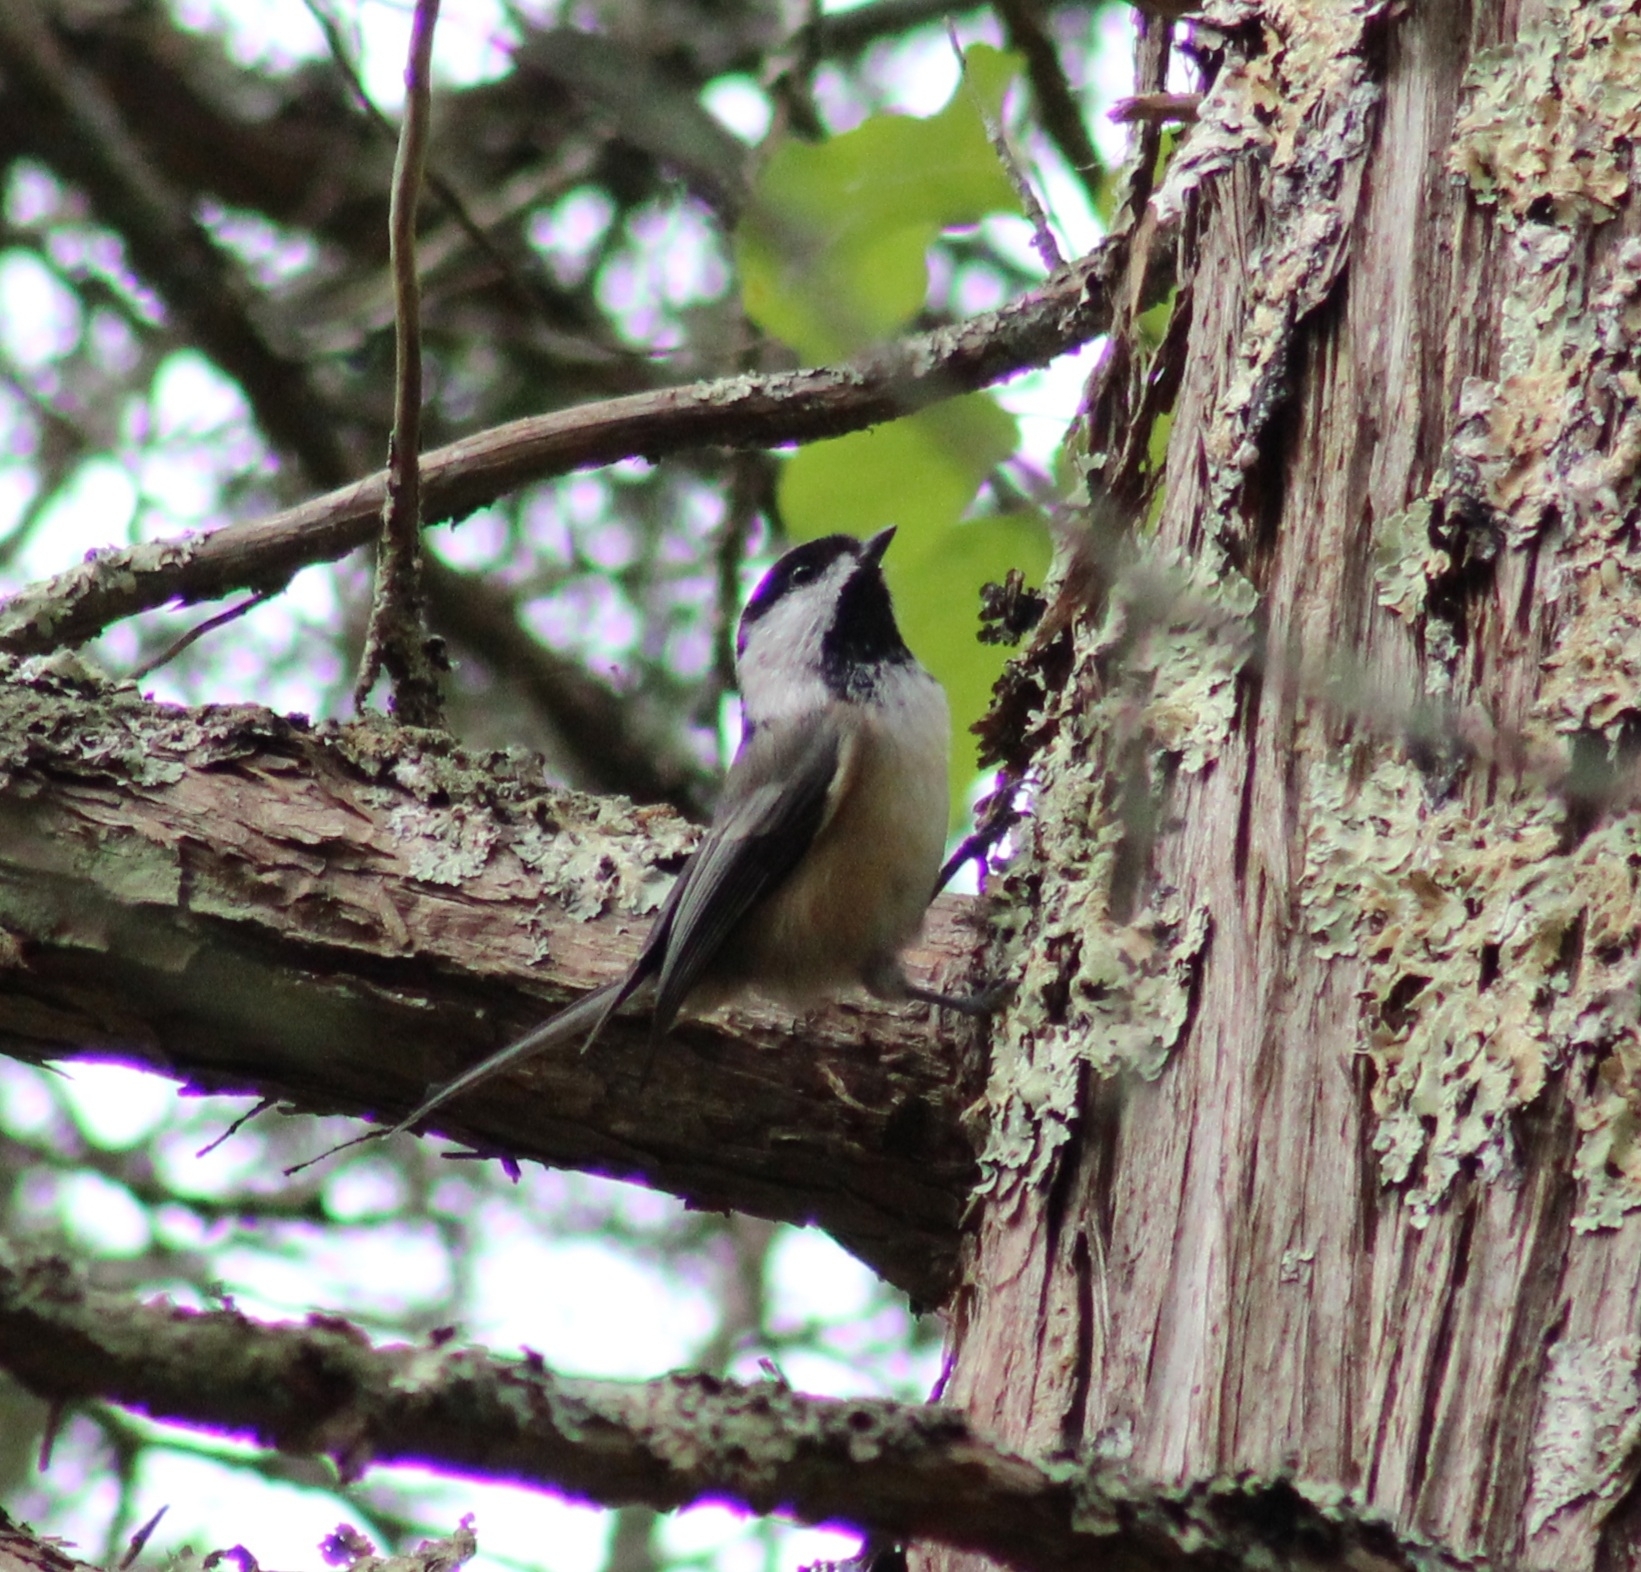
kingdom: Animalia
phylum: Chordata
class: Aves
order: Passeriformes
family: Paridae
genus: Poecile
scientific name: Poecile atricapillus
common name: Black-capped chickadee
